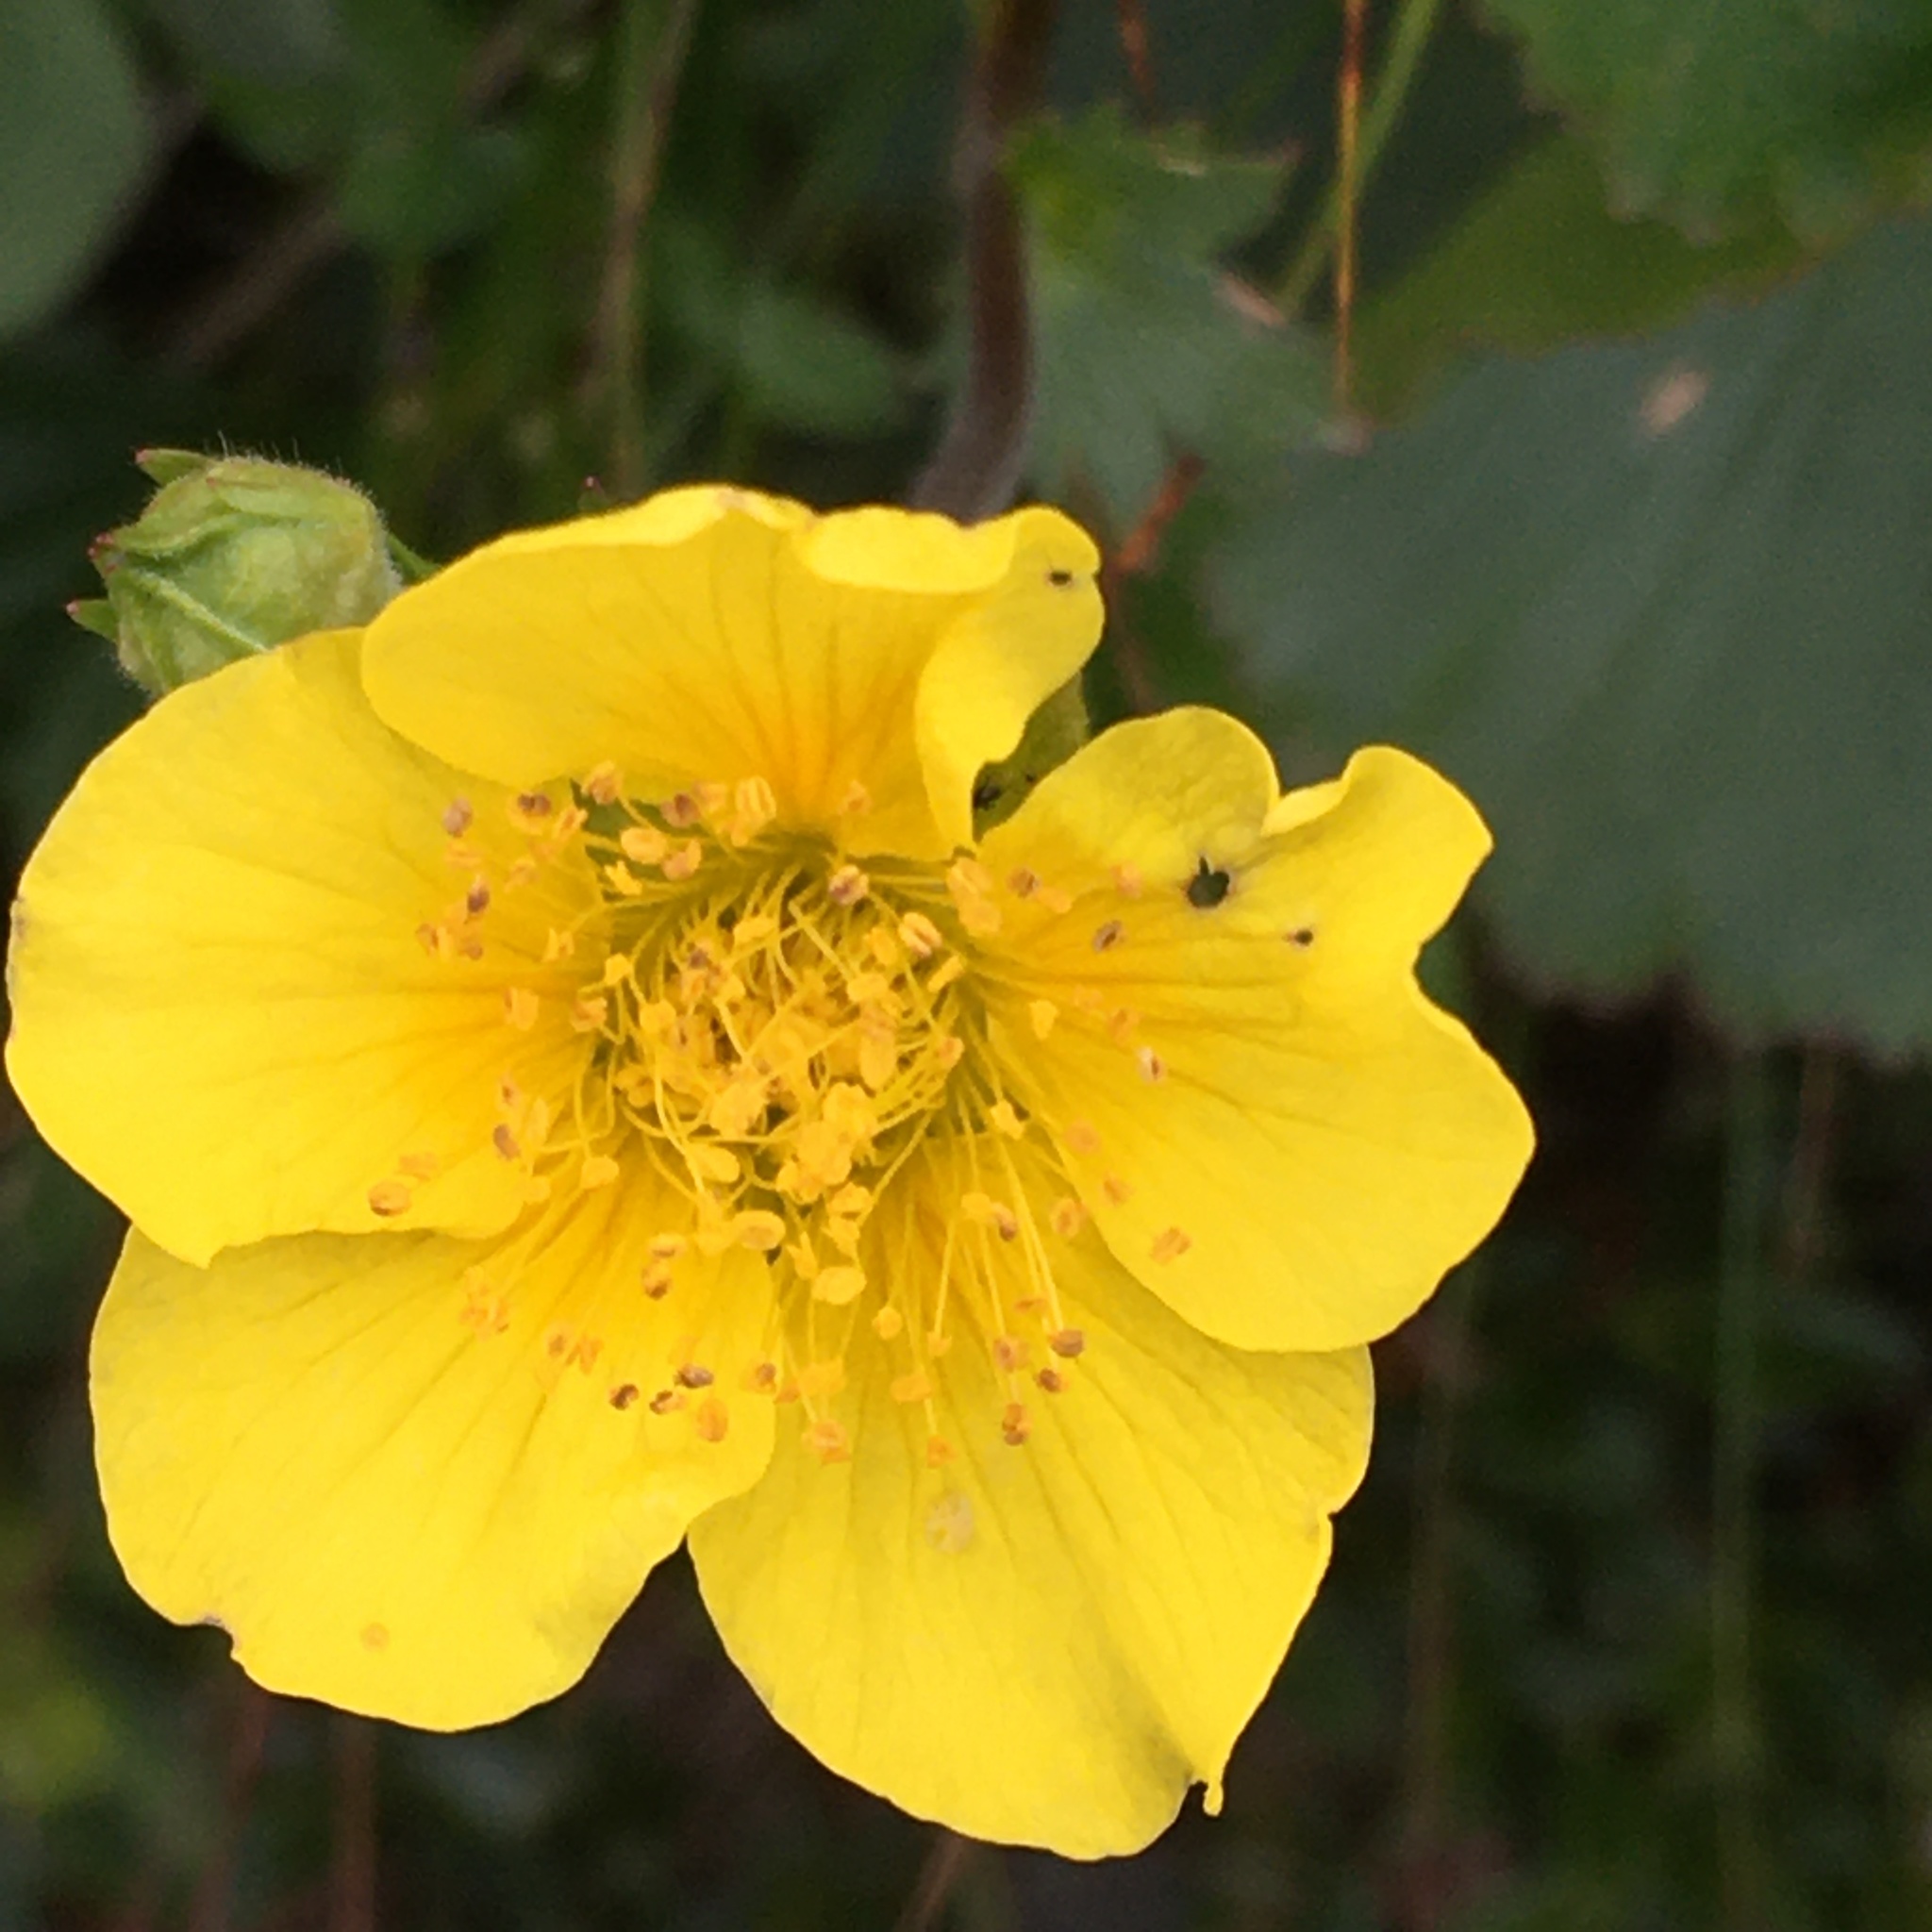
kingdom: Plantae
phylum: Tracheophyta
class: Magnoliopsida
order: Rosales
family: Rosaceae
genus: Geum
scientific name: Geum peckii
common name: Eastern mountain avens
